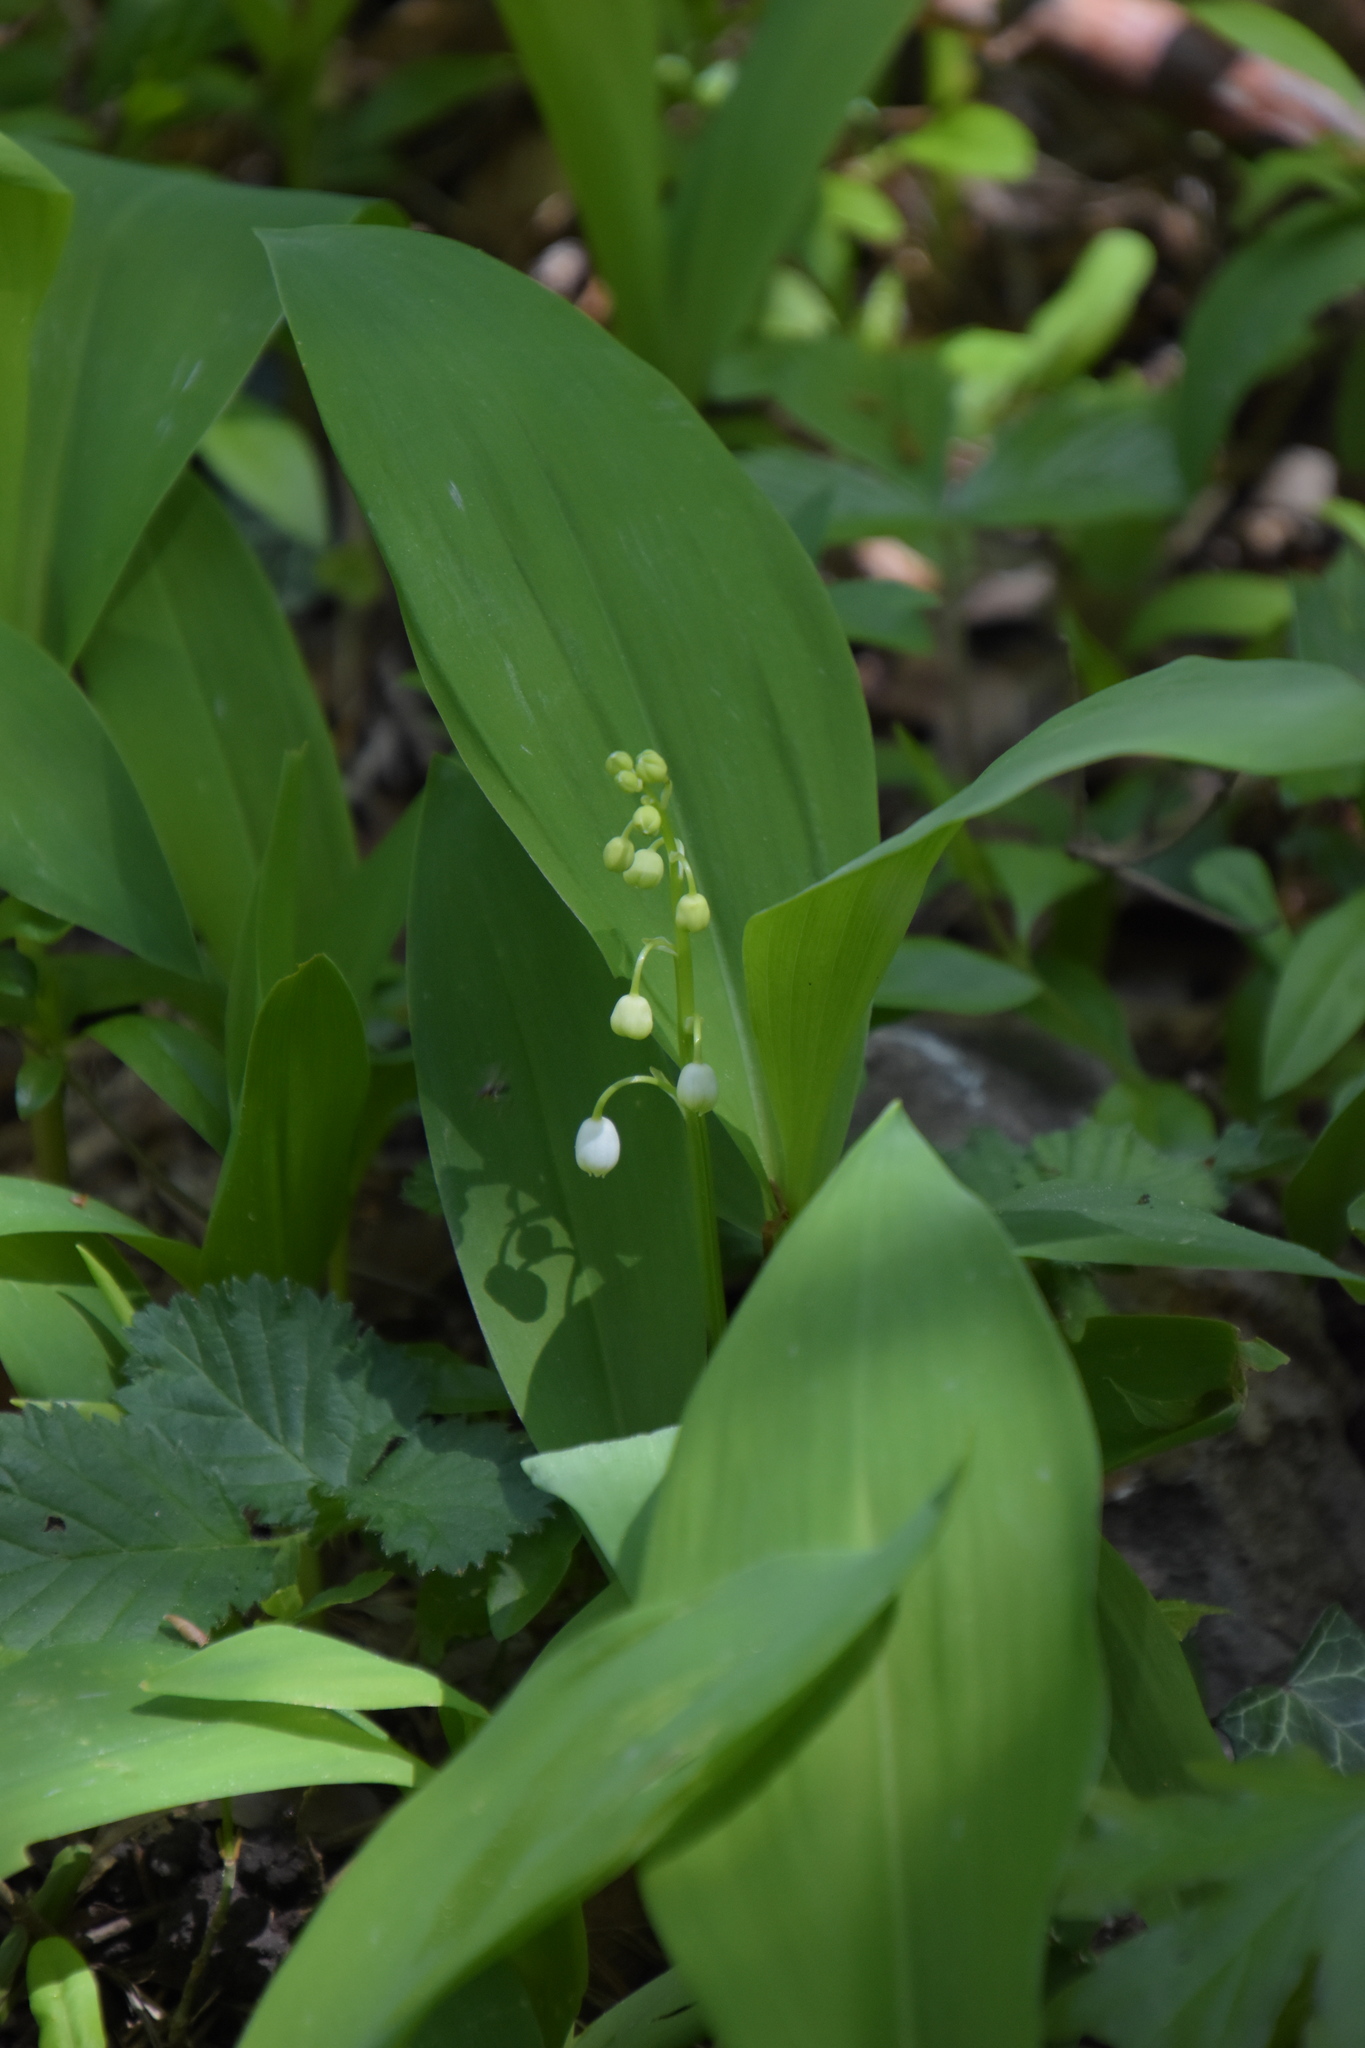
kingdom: Plantae
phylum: Tracheophyta
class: Liliopsida
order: Asparagales
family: Asparagaceae
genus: Convallaria
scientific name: Convallaria majalis
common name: Lily-of-the-valley
